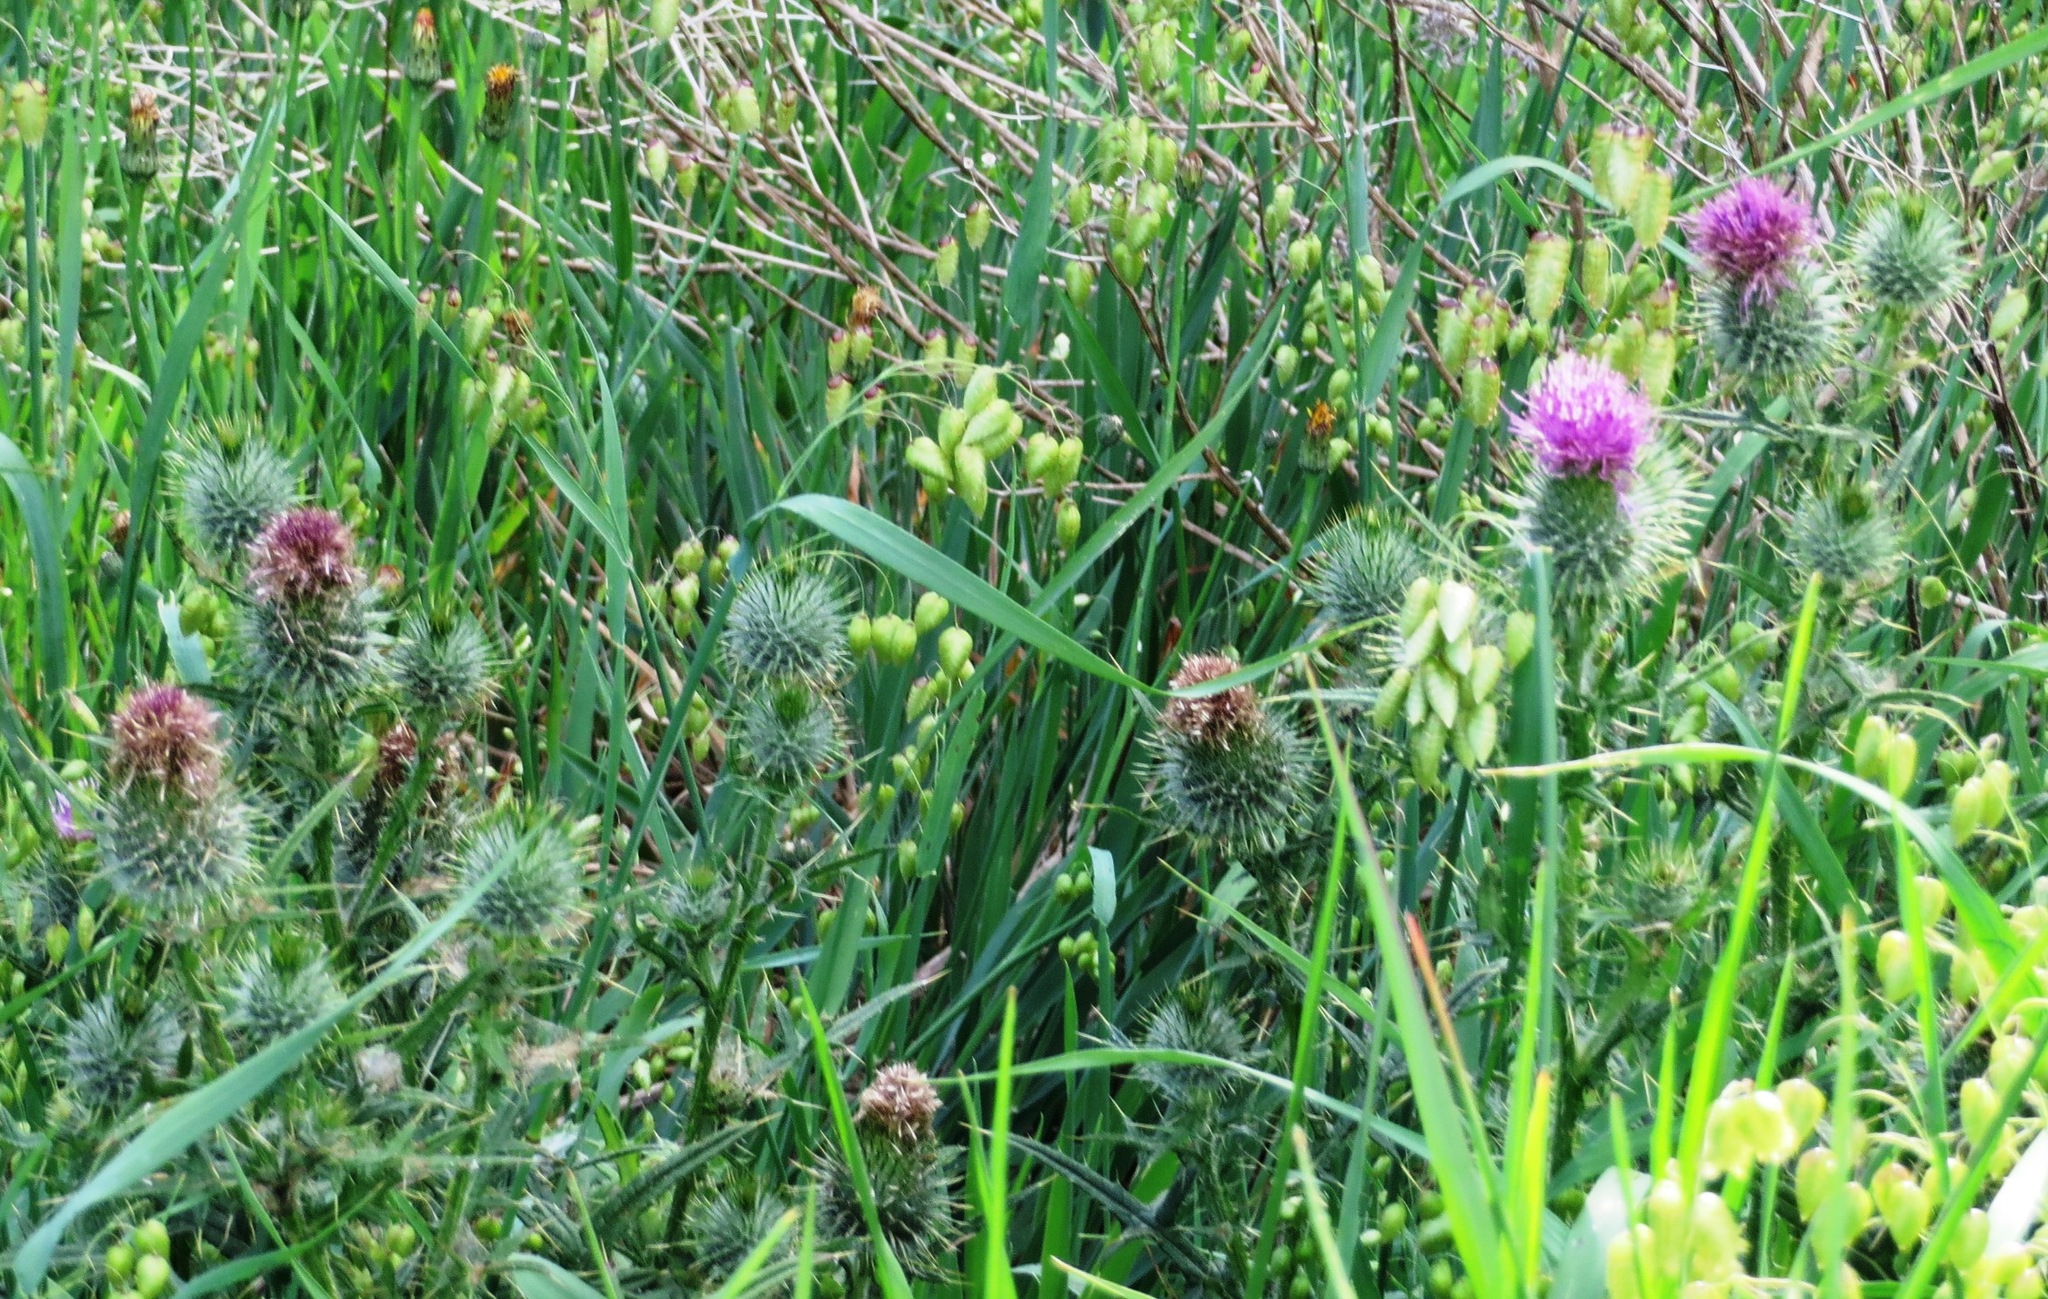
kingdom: Plantae
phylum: Tracheophyta
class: Magnoliopsida
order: Asterales
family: Asteraceae
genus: Cirsium
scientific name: Cirsium vulgare
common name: Bull thistle
